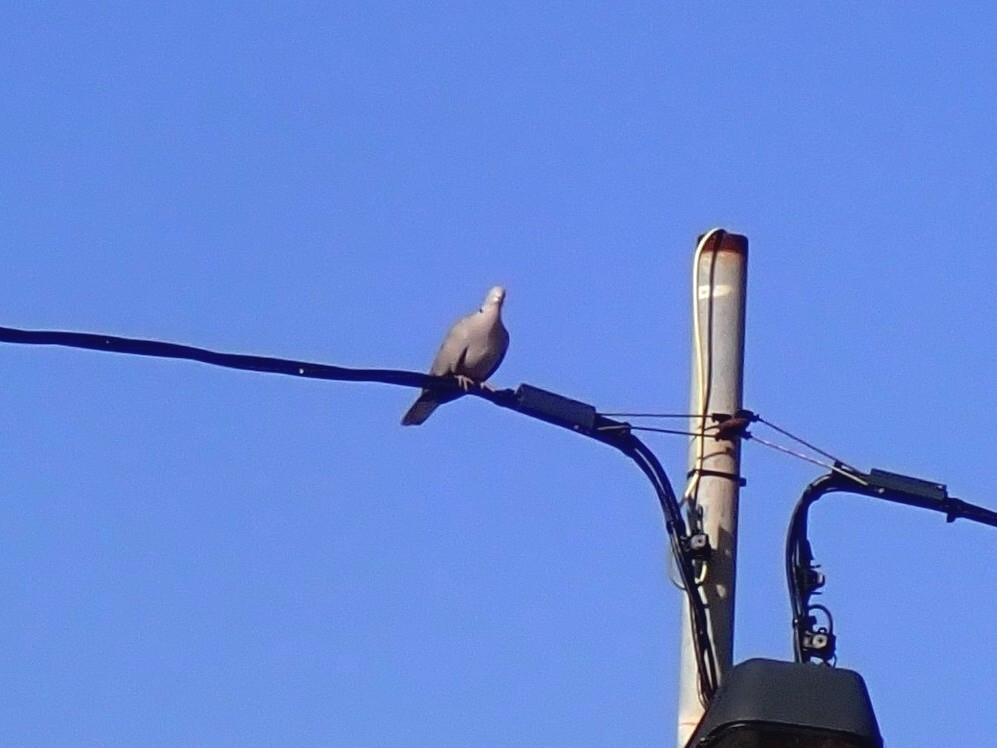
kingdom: Animalia
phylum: Chordata
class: Aves
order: Columbiformes
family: Columbidae
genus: Streptopelia
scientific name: Streptopelia decaocto
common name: Eurasian collared dove
